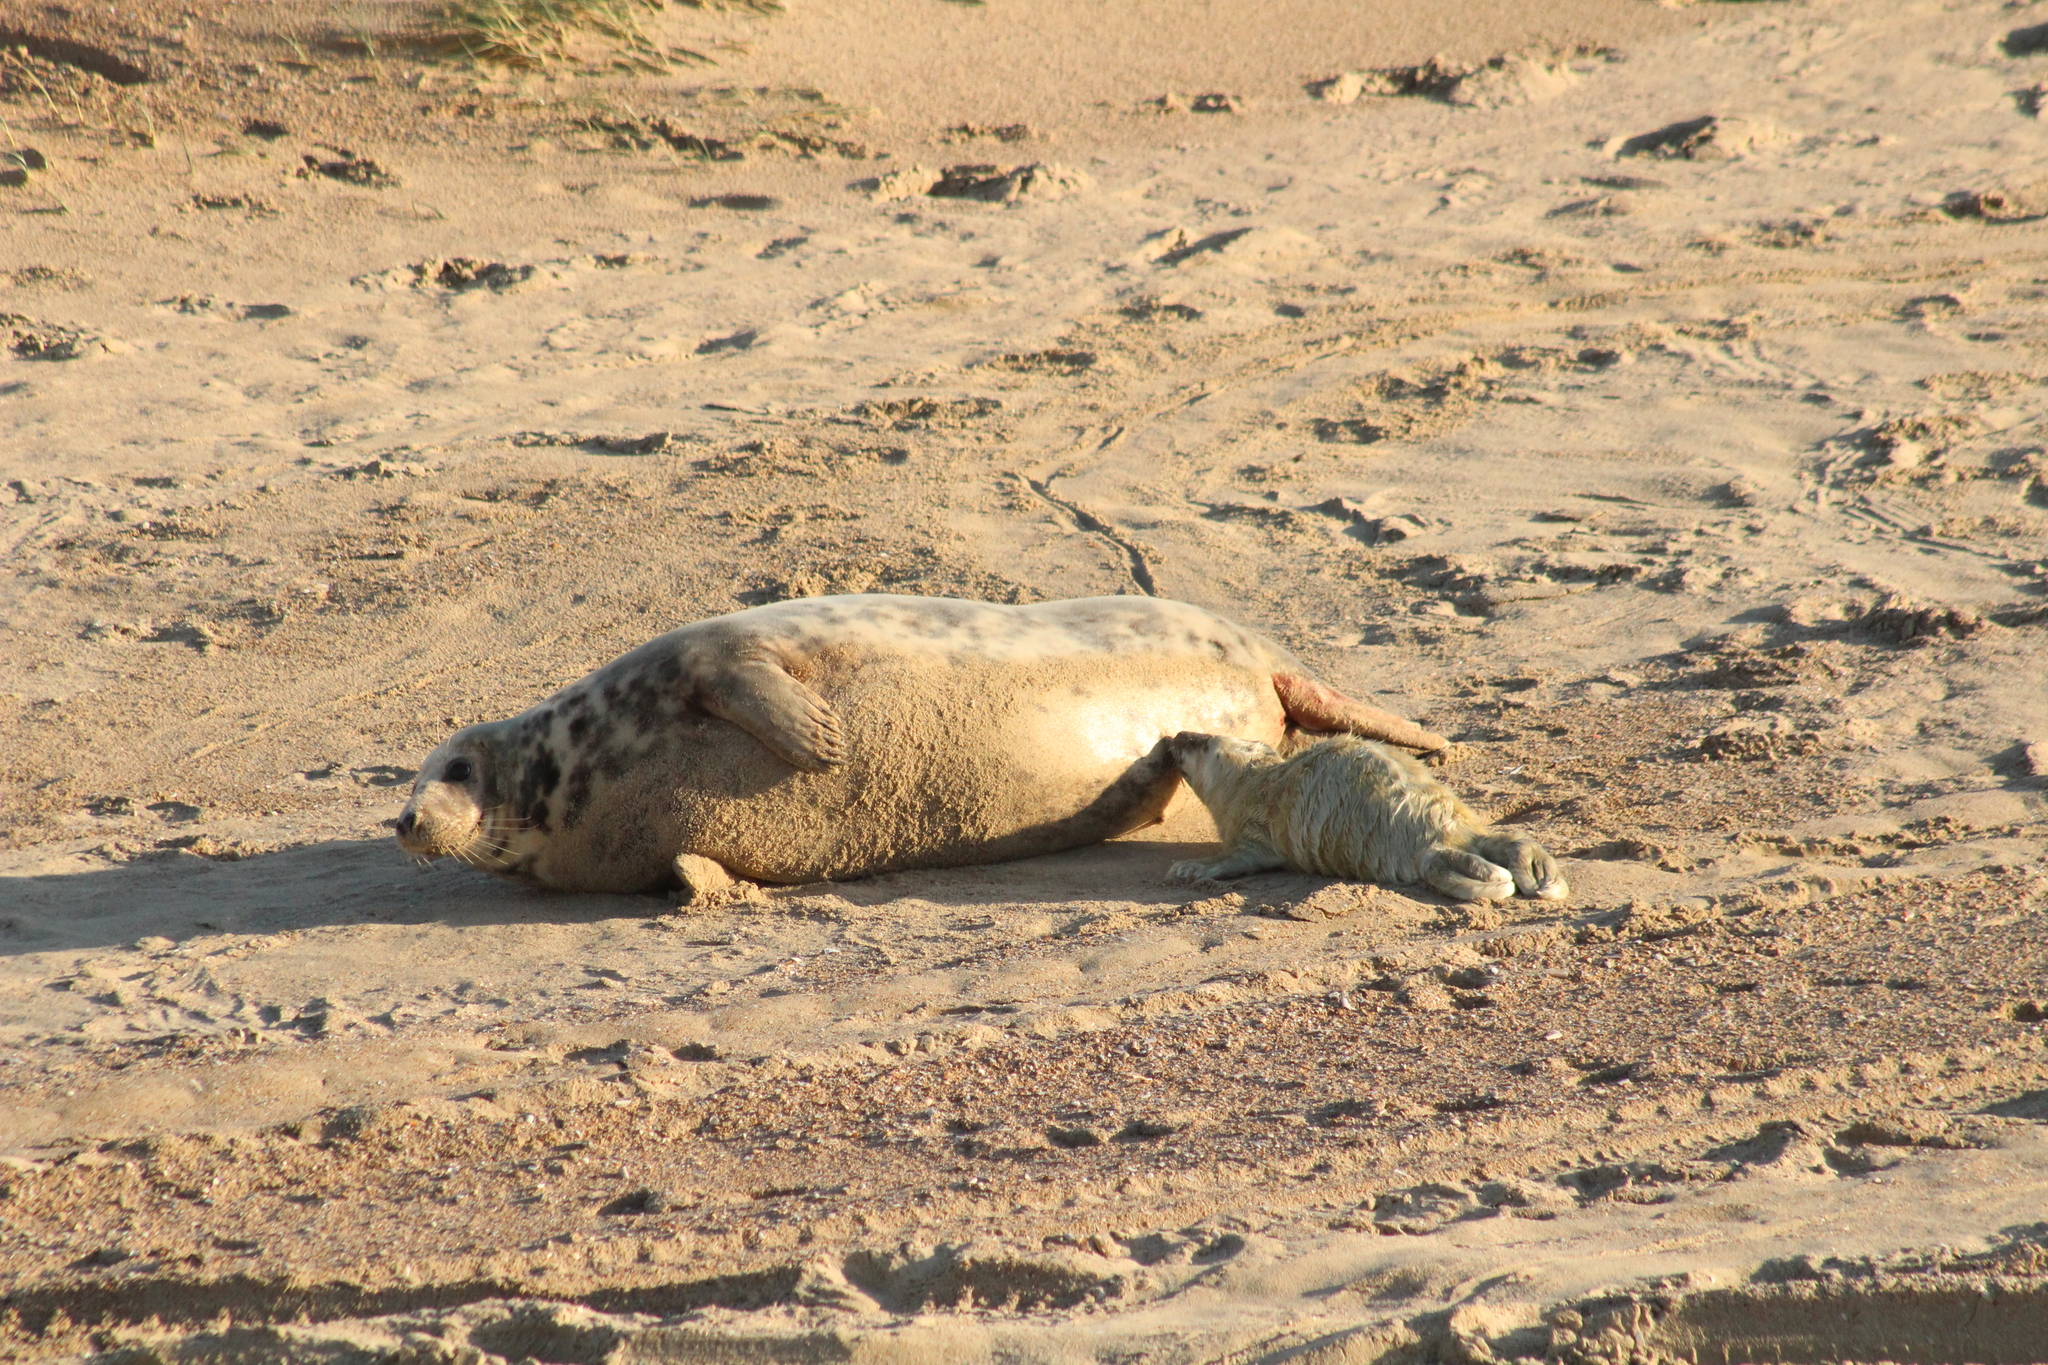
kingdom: Animalia
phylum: Chordata
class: Mammalia
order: Carnivora
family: Phocidae
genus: Halichoerus
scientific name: Halichoerus grypus
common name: Grey seal
